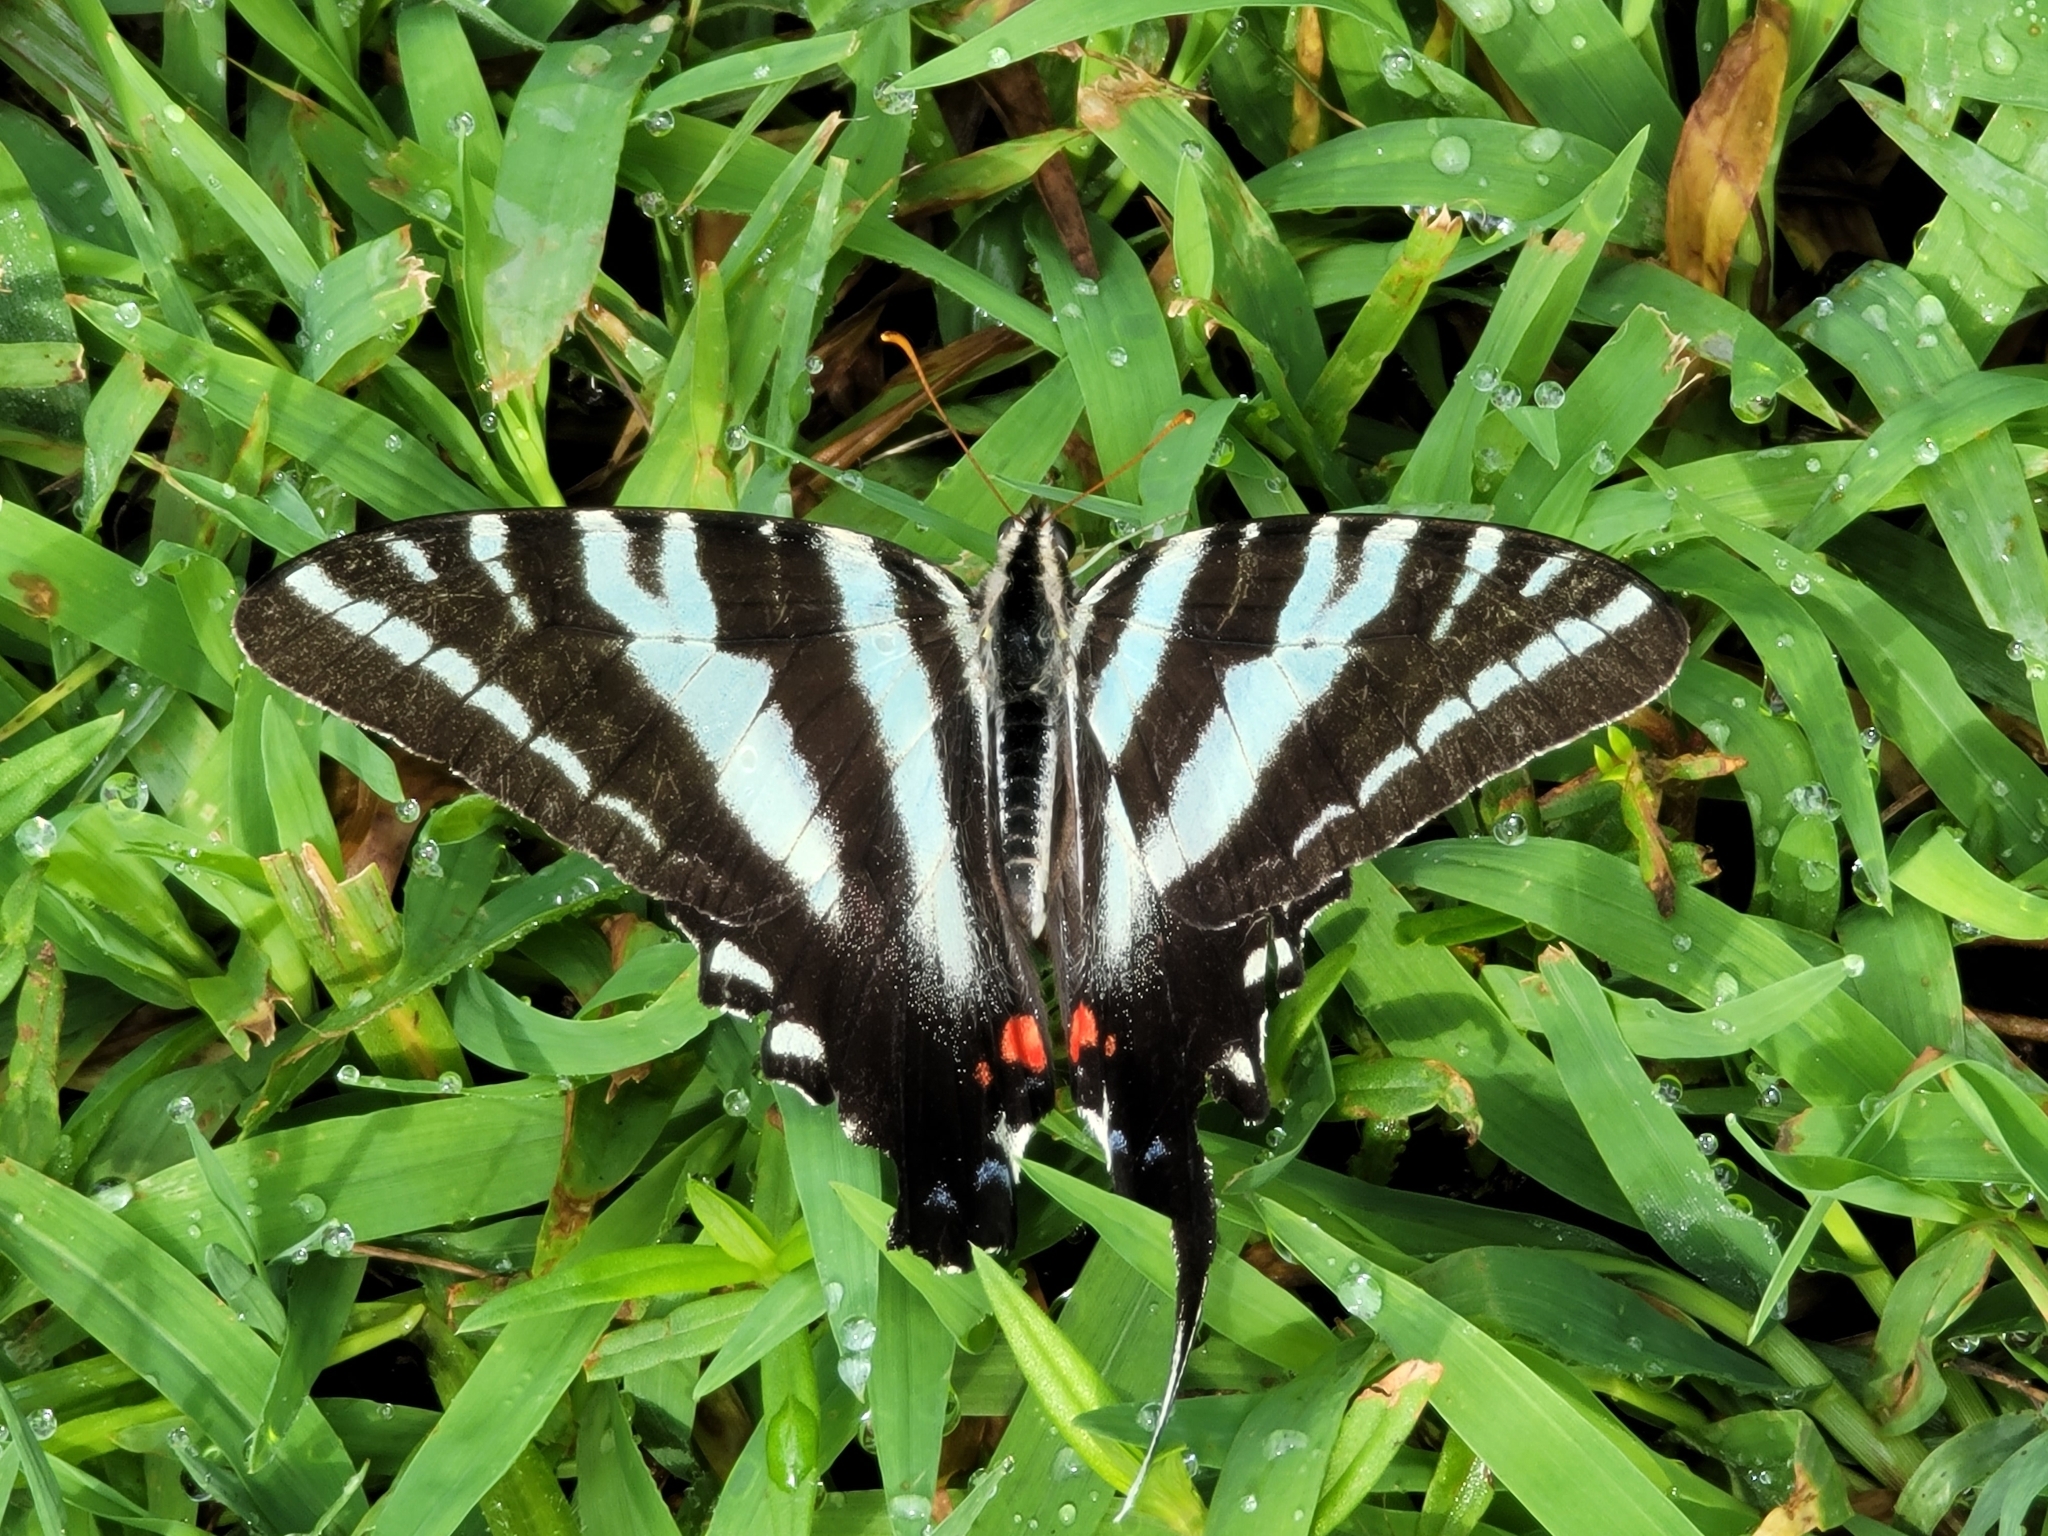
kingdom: Animalia
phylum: Arthropoda
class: Insecta
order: Lepidoptera
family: Papilionidae
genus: Protographium
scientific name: Protographium marcellus
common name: Zebra swallowtail
